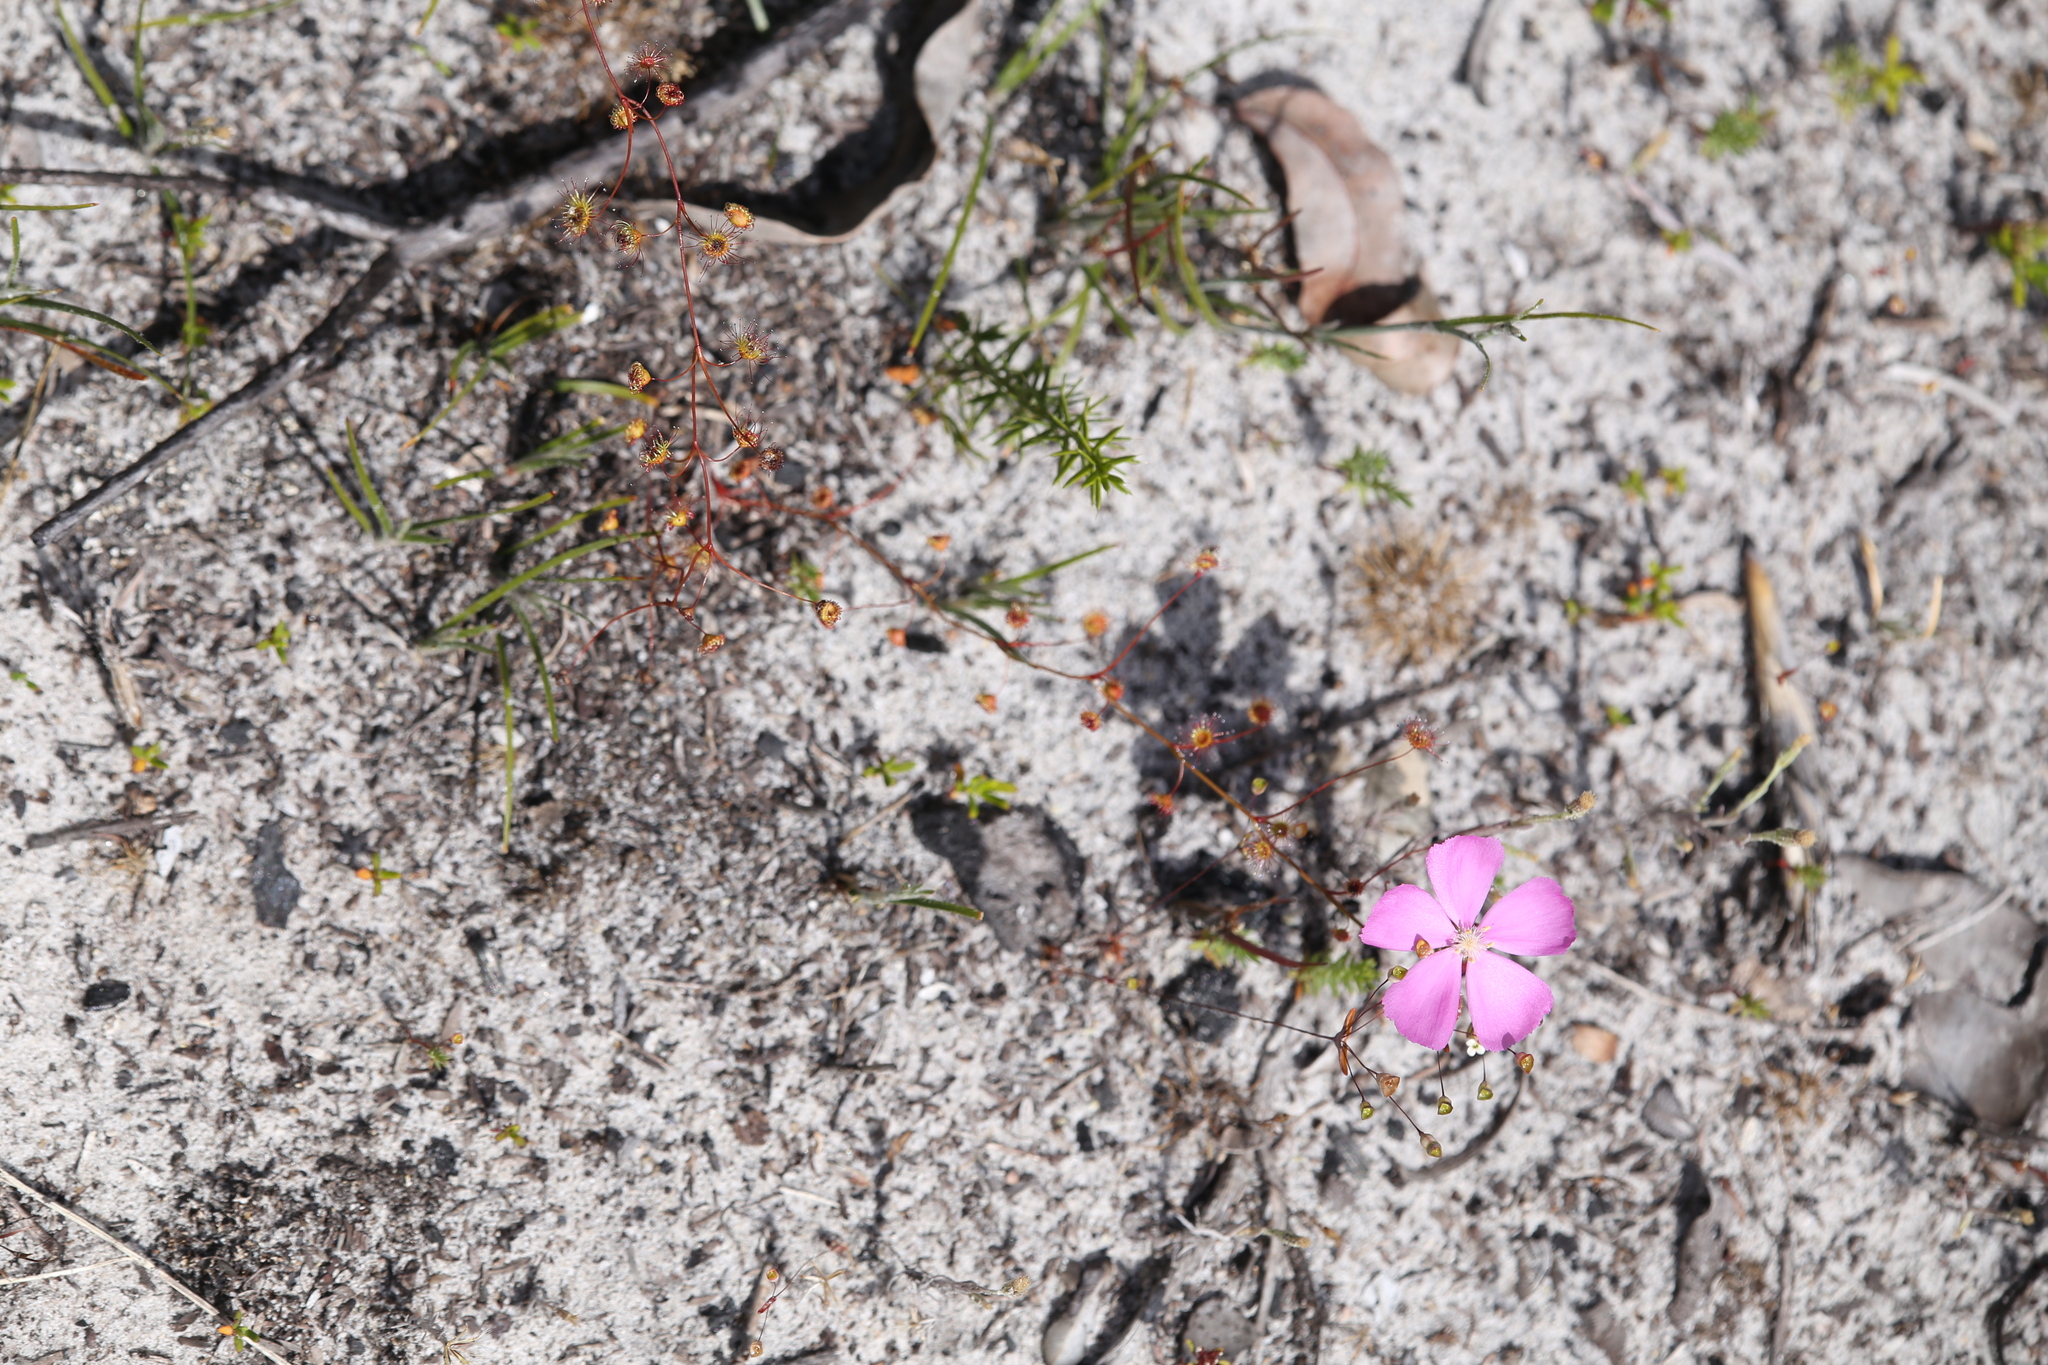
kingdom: Plantae
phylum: Tracheophyta
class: Magnoliopsida
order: Caryophyllales
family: Droseraceae
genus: Drosera
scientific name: Drosera
